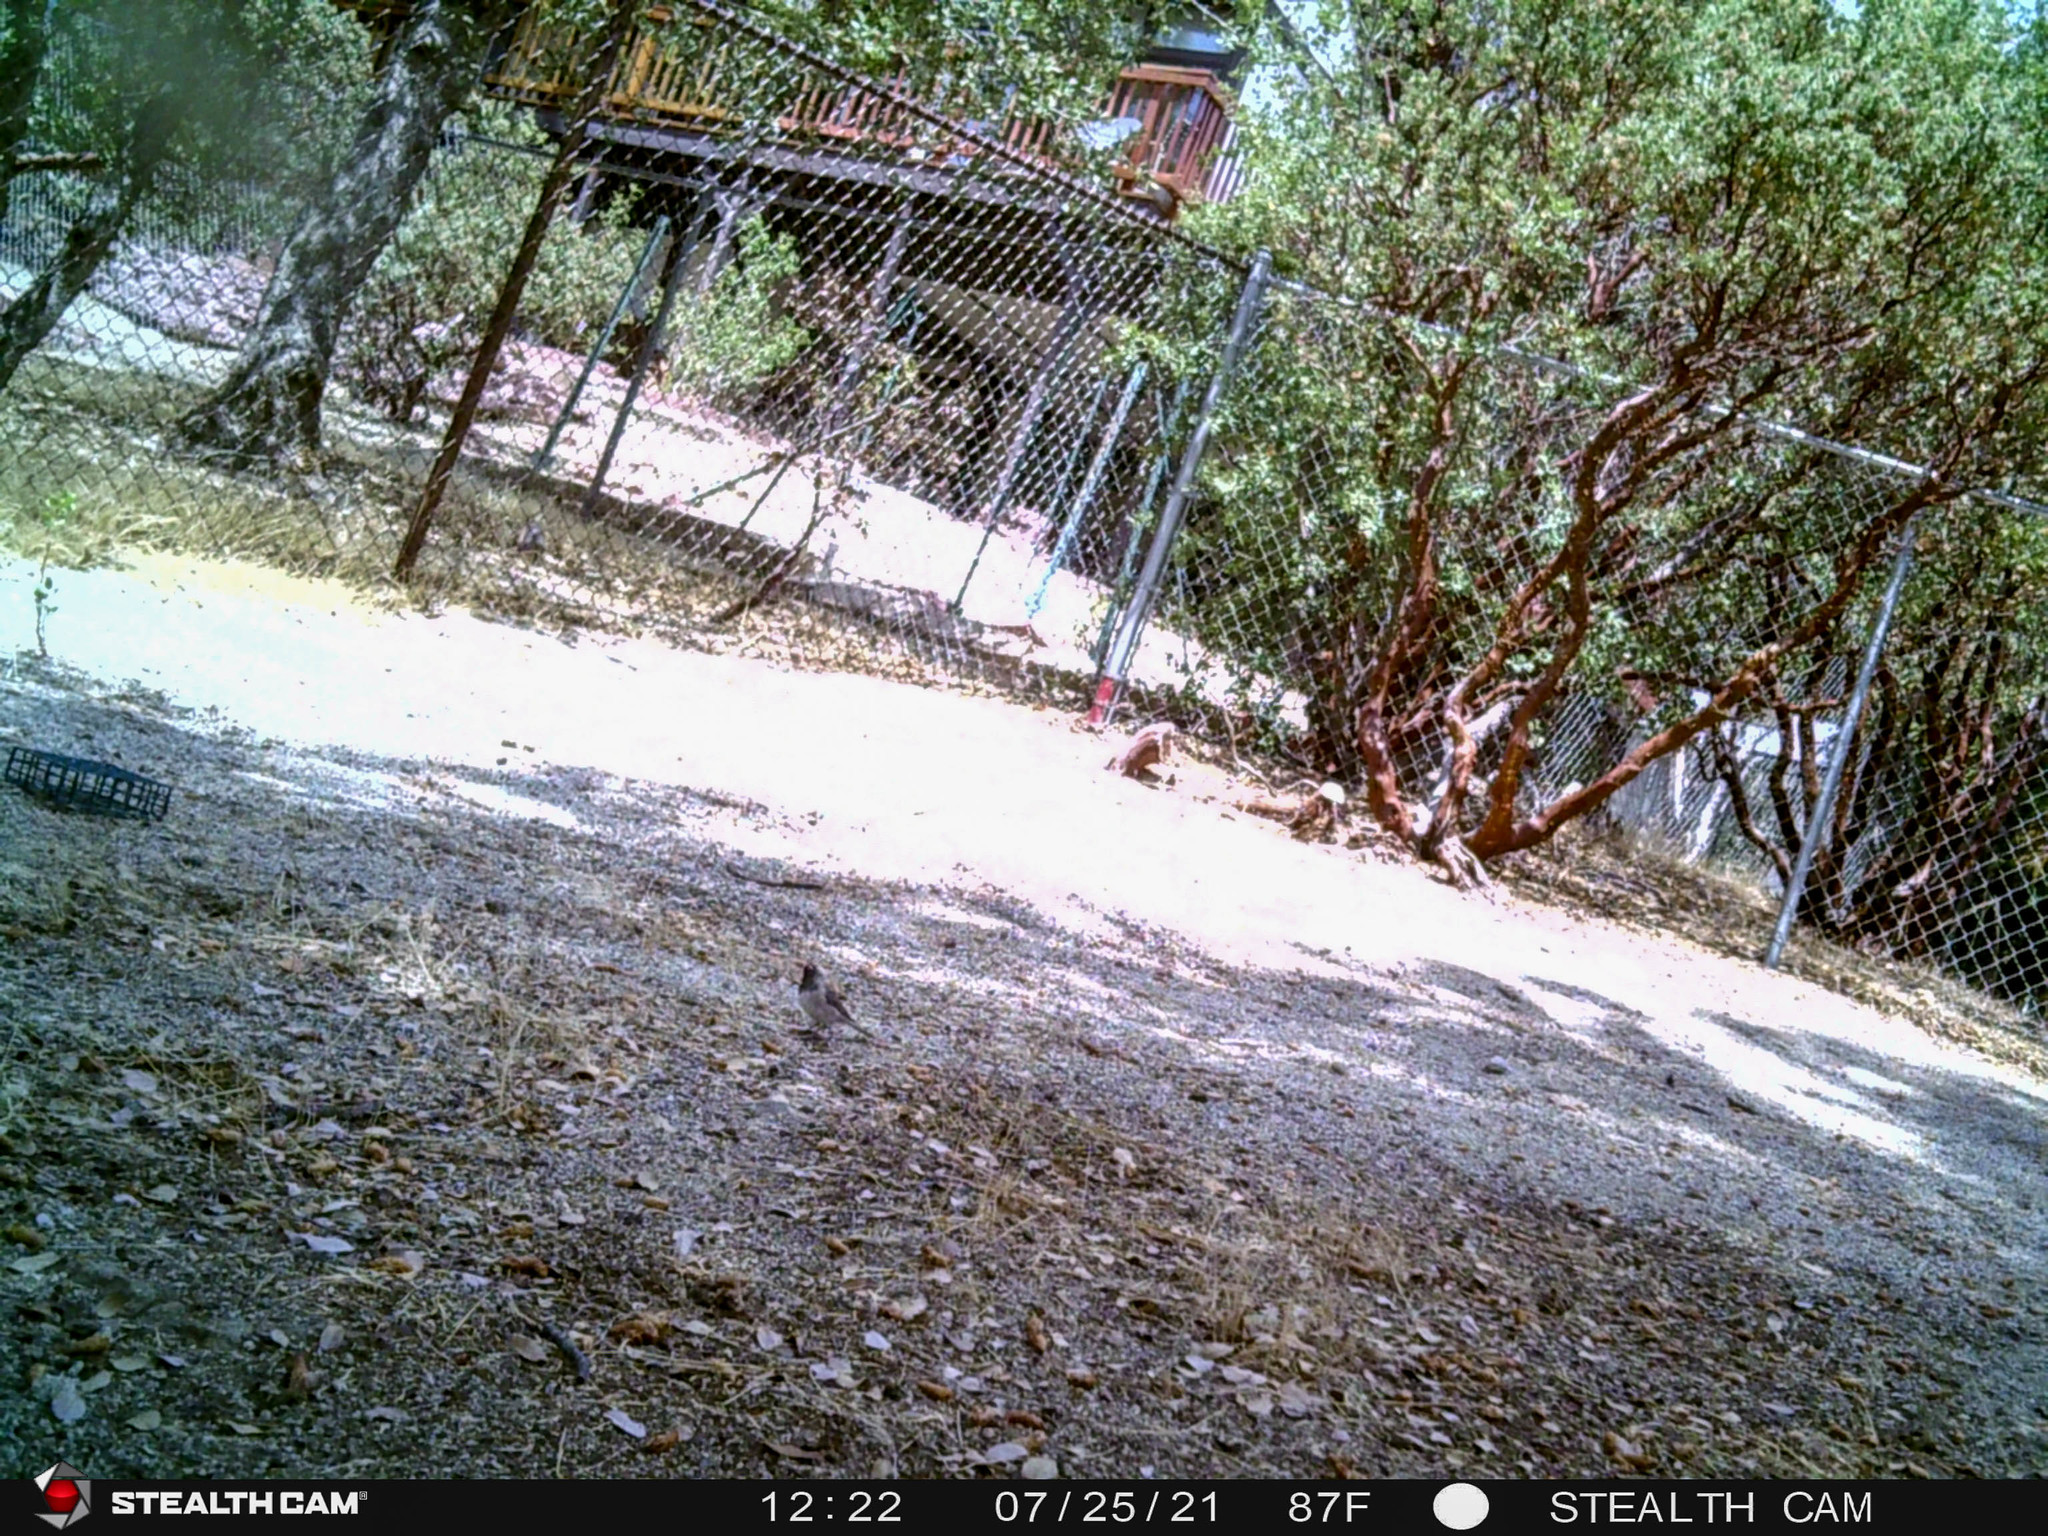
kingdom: Animalia
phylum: Chordata
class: Aves
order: Passeriformes
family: Passerellidae
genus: Junco
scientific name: Junco hyemalis
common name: Dark-eyed junco
